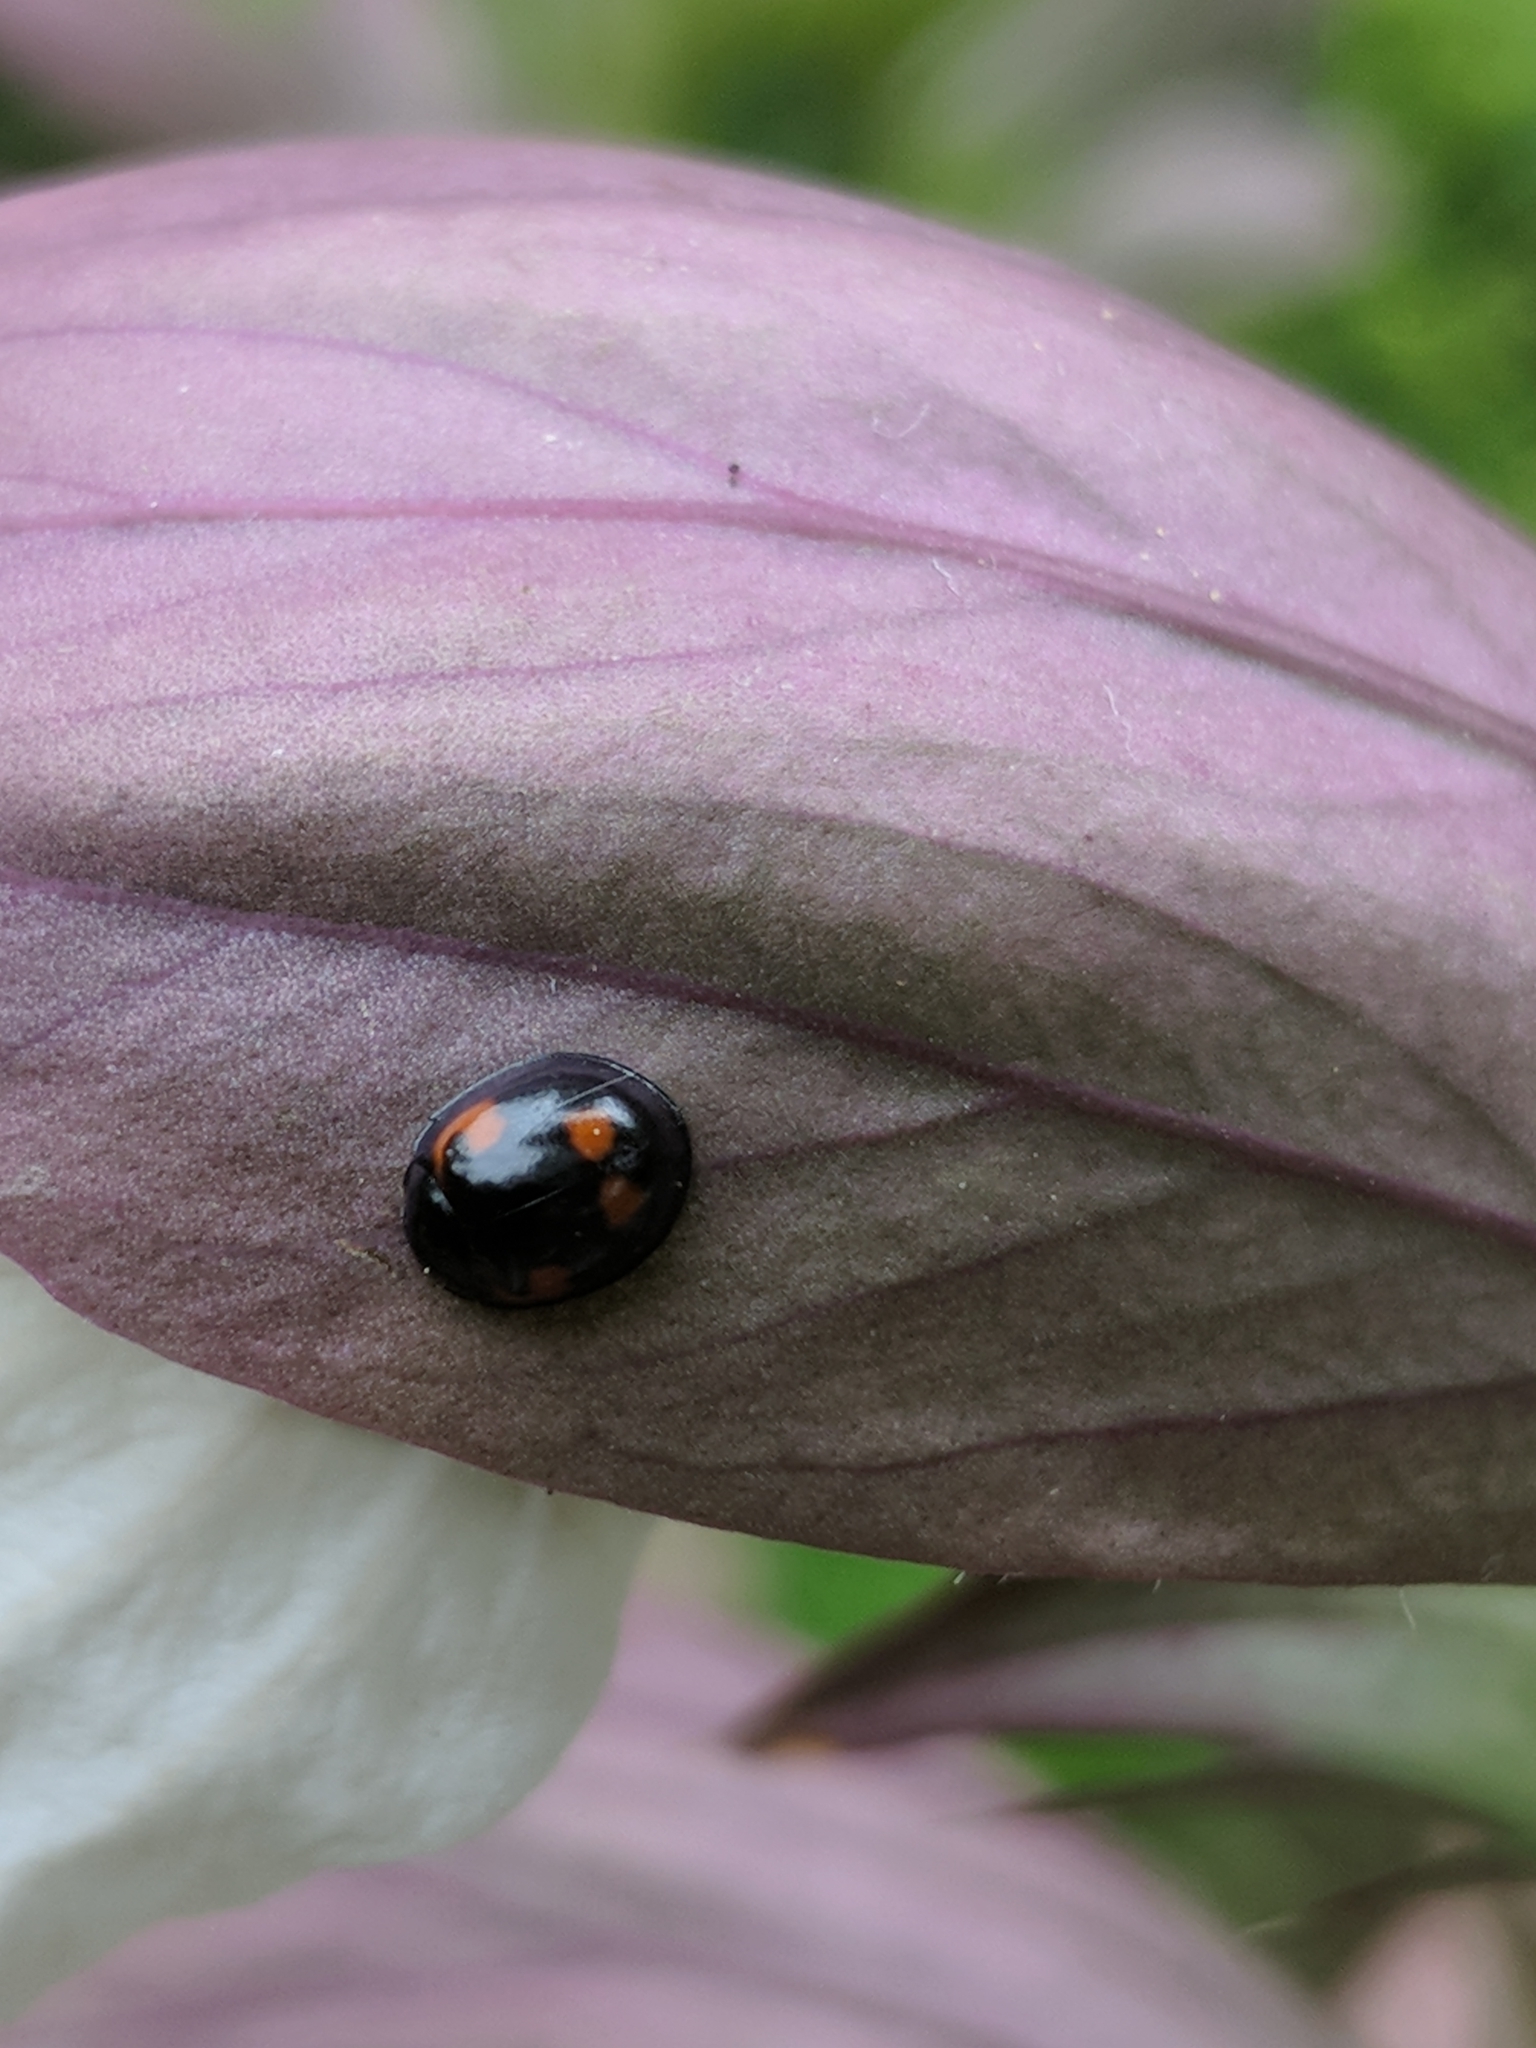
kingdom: Animalia
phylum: Arthropoda
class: Insecta
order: Coleoptera
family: Coccinellidae
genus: Brumus
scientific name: Brumus quadripustulatus
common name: Ladybird beetle
